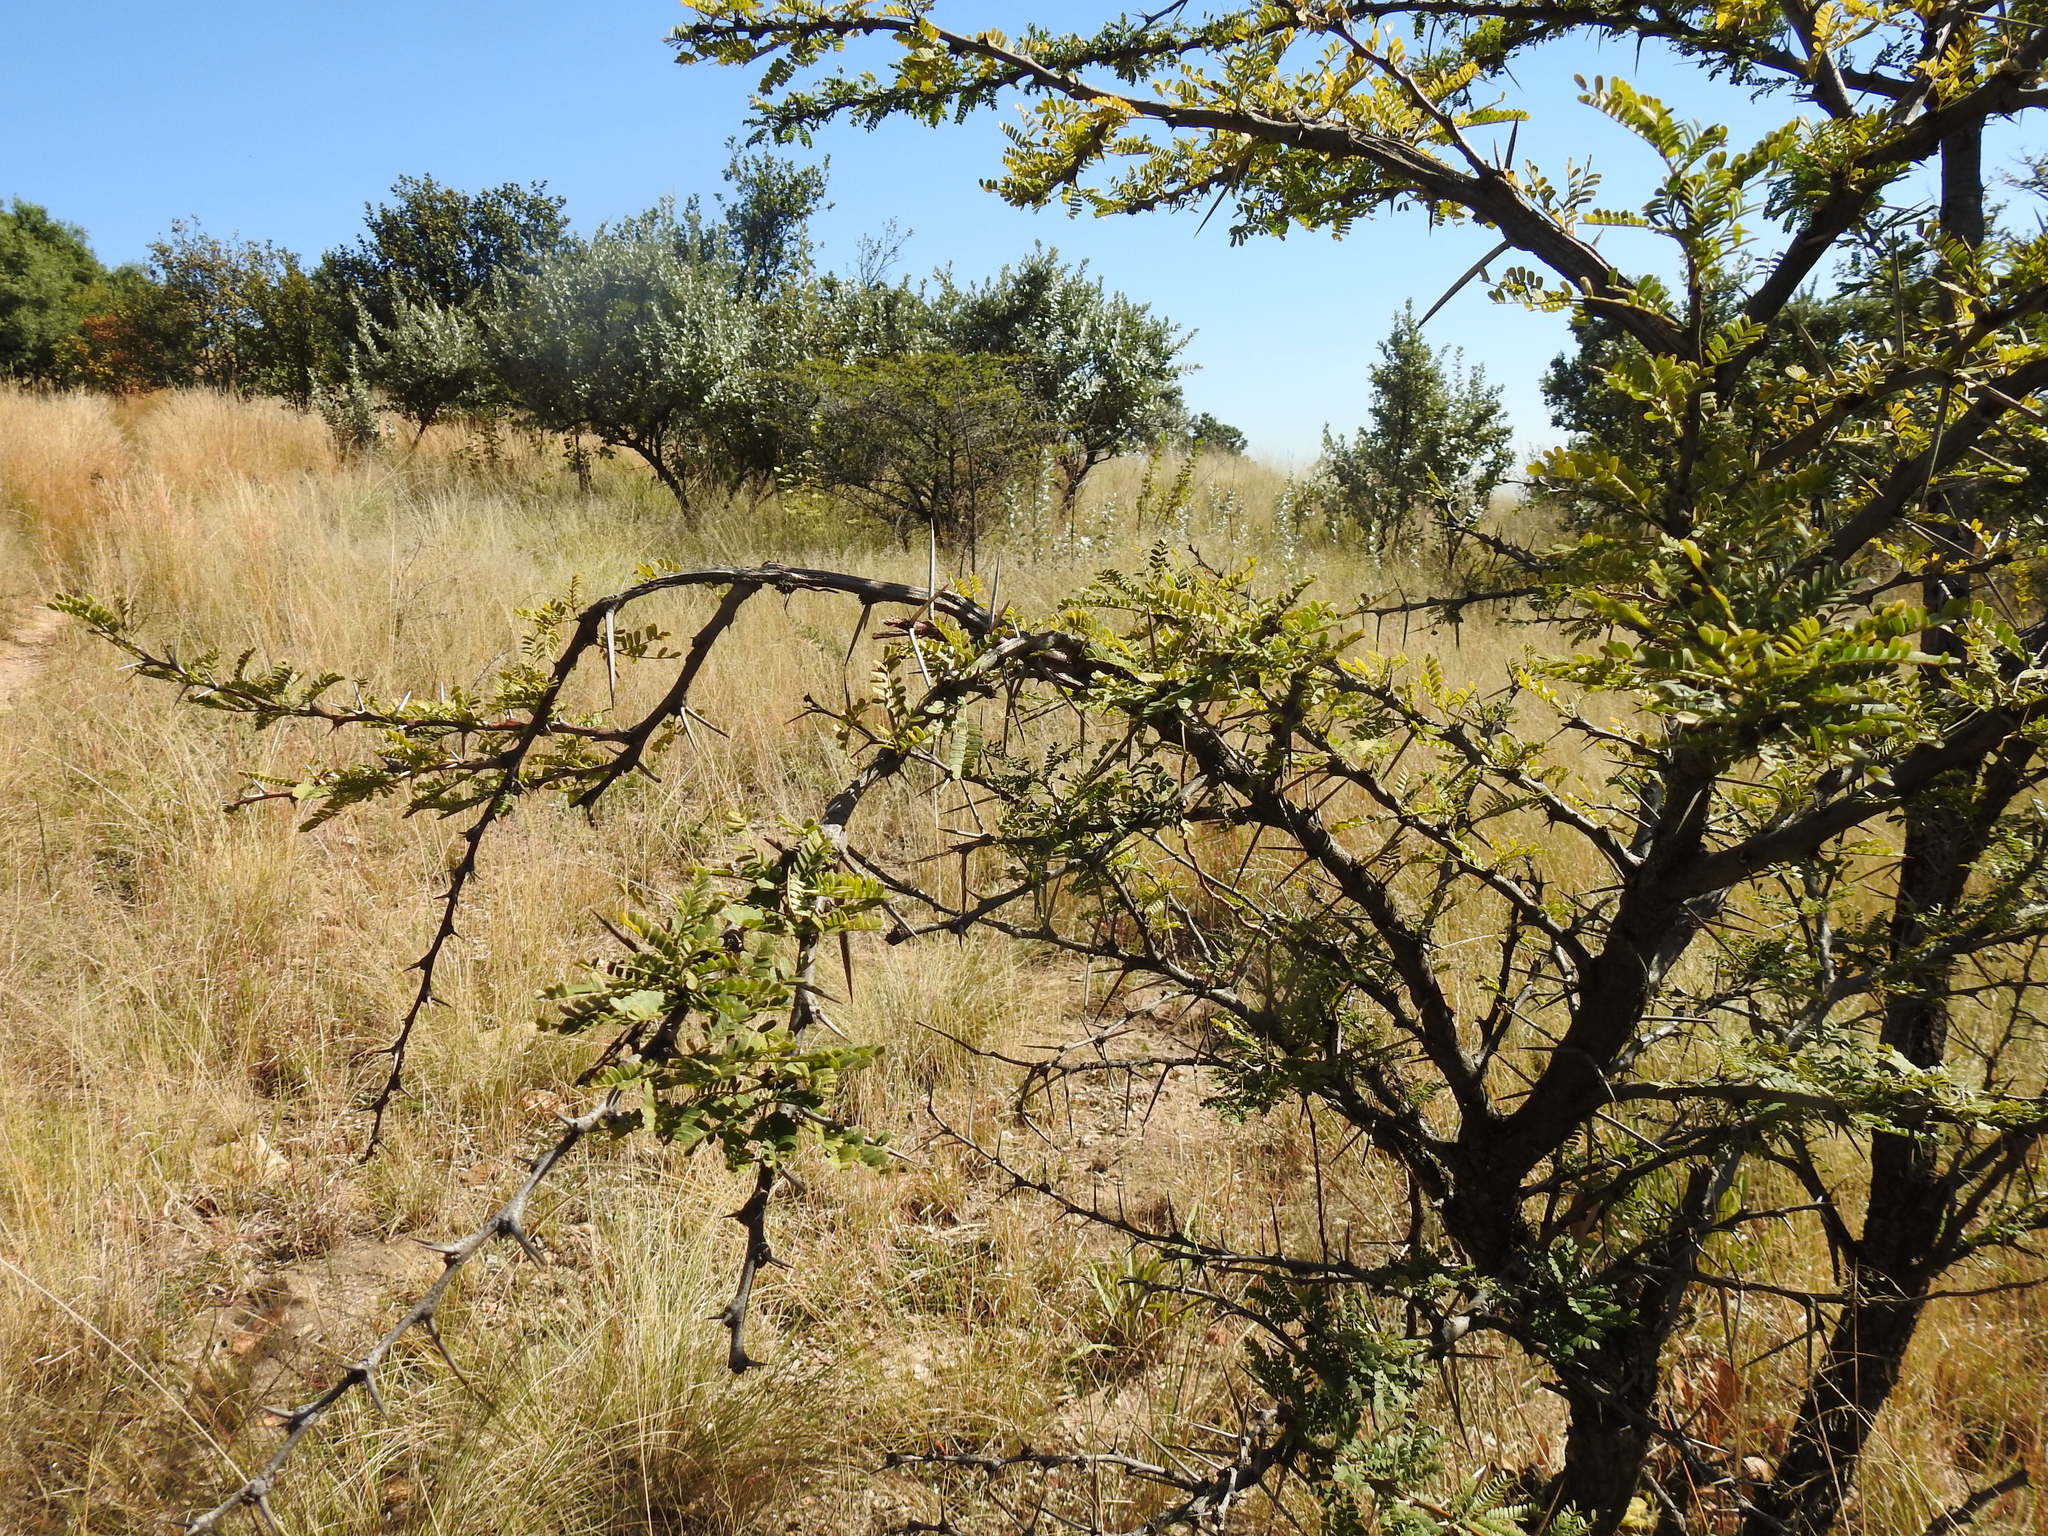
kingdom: Plantae
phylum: Tracheophyta
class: Magnoliopsida
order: Fabales
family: Fabaceae
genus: Vachellia
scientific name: Vachellia robusta
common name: Ankle thorn
